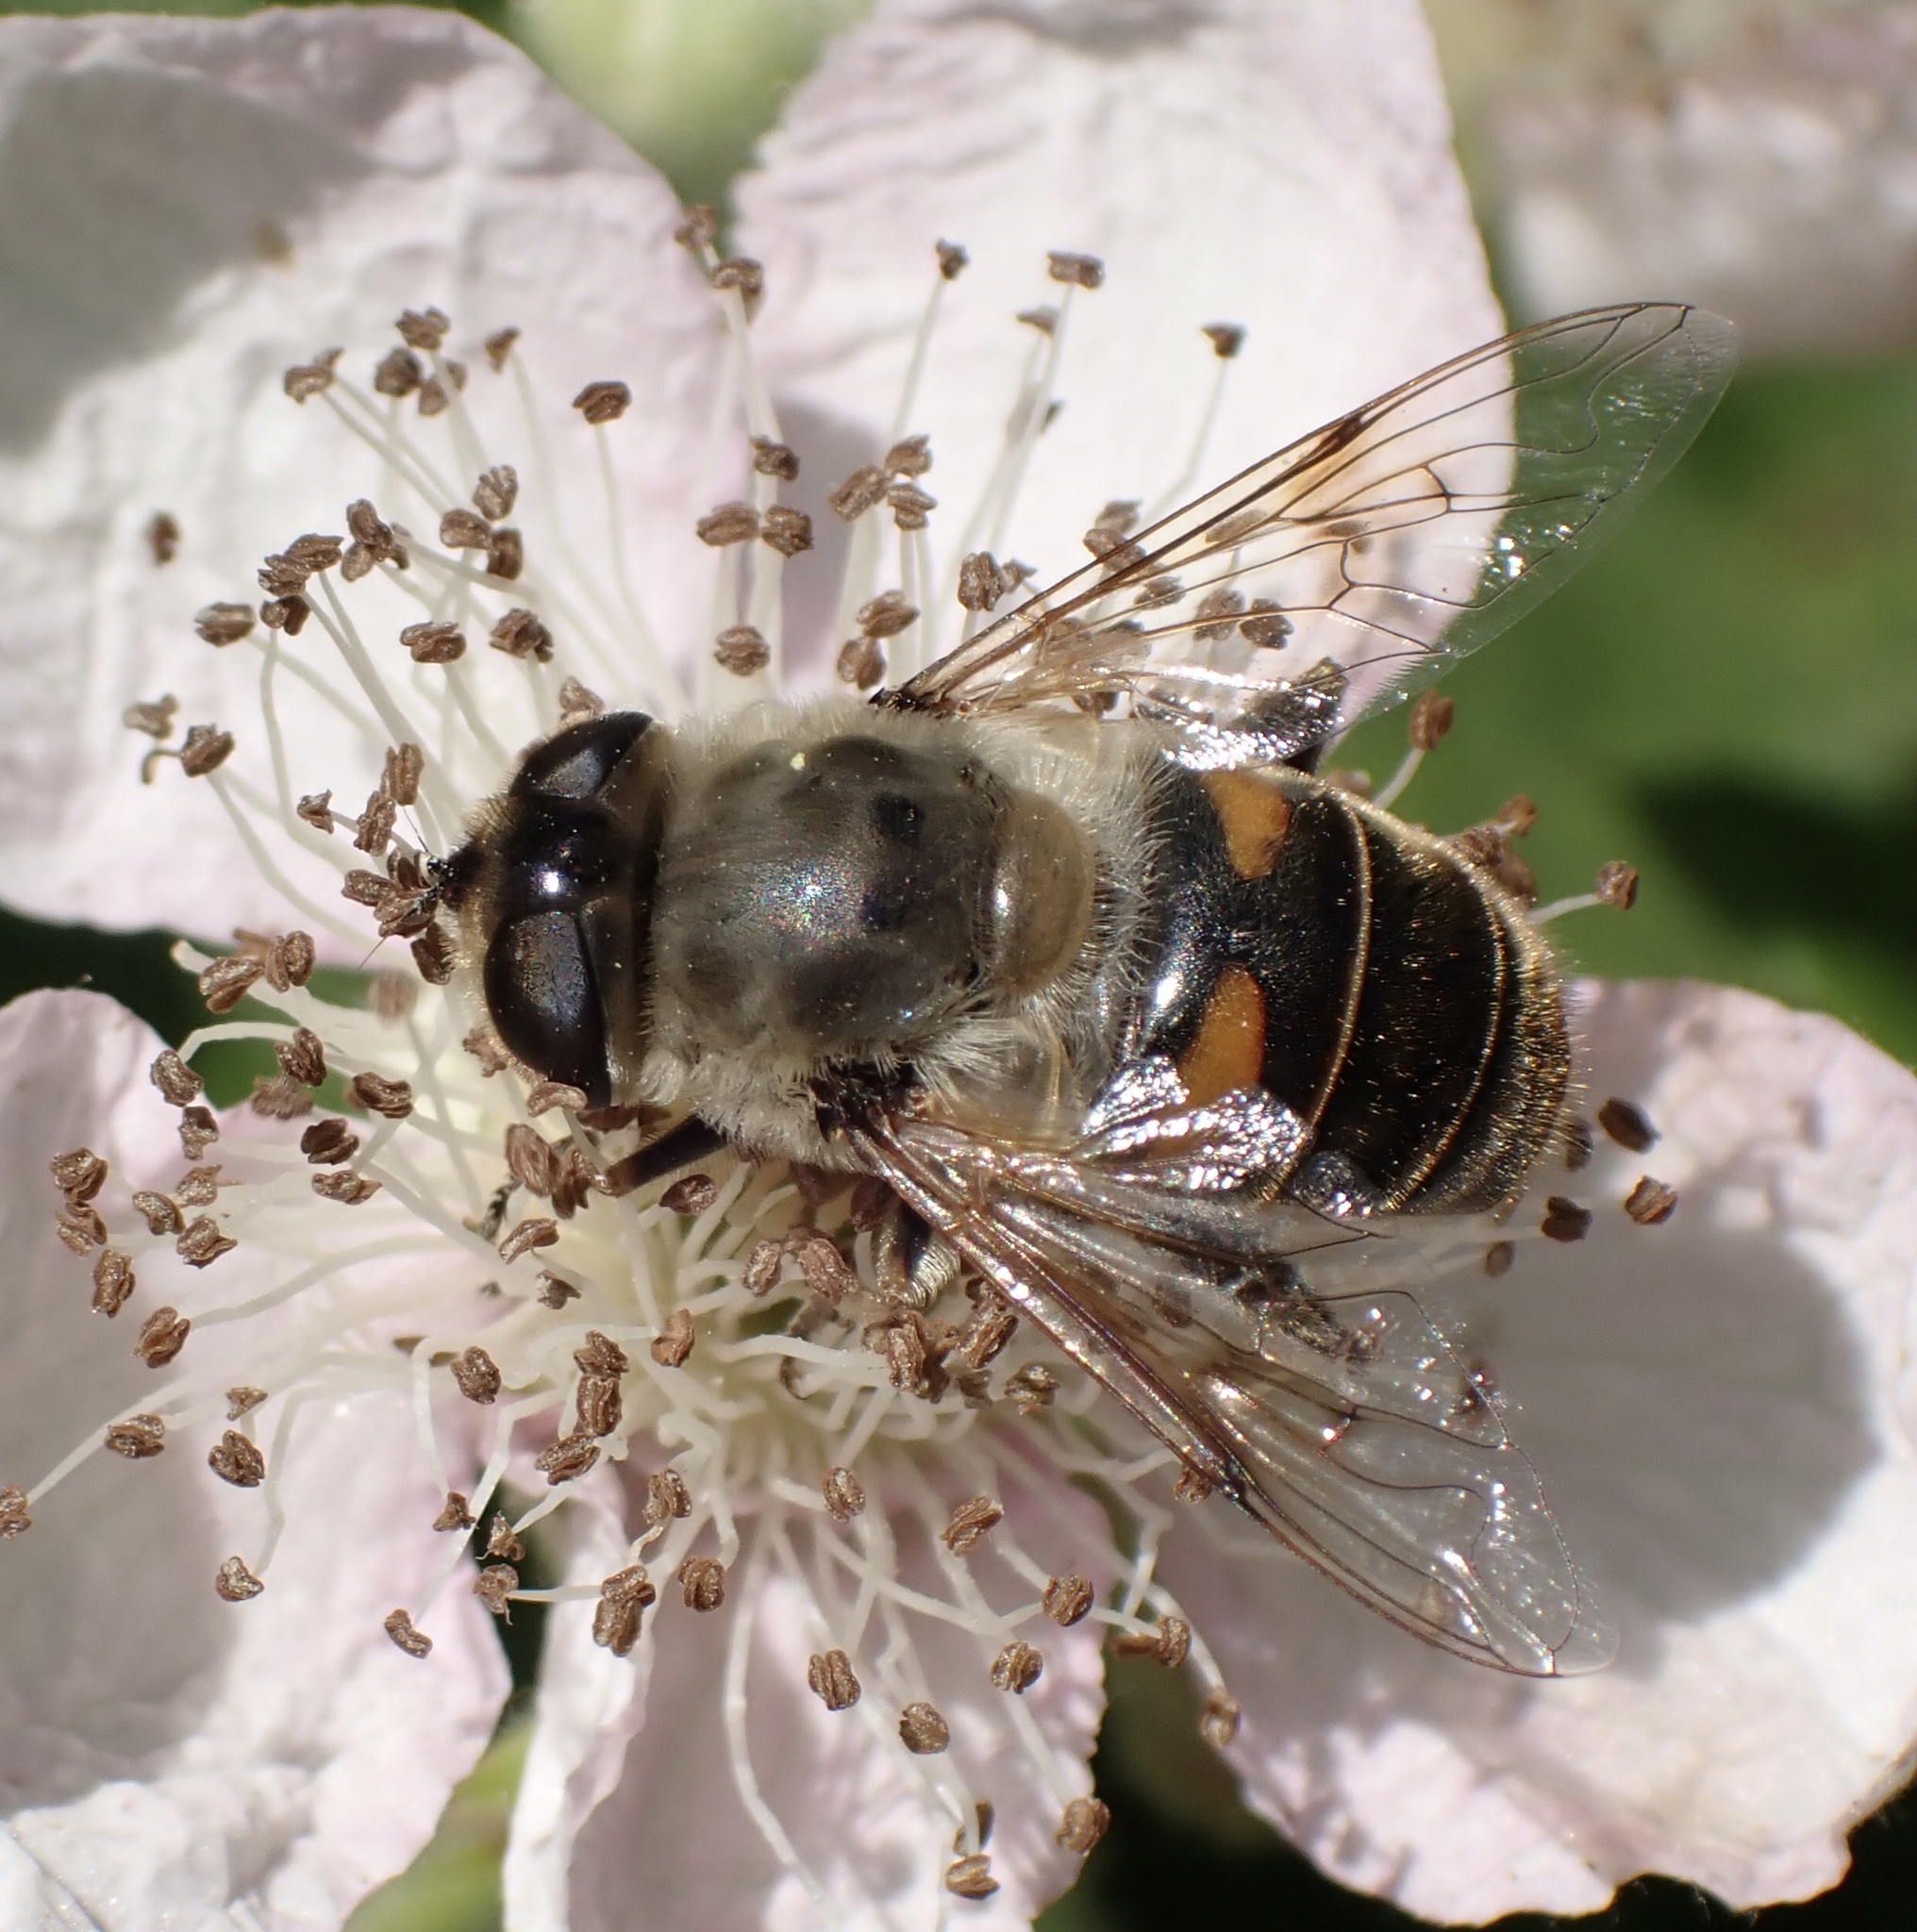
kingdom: Animalia
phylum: Arthropoda
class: Insecta
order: Diptera
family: Syrphidae
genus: Eristalis
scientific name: Eristalis tenax
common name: Drone fly
